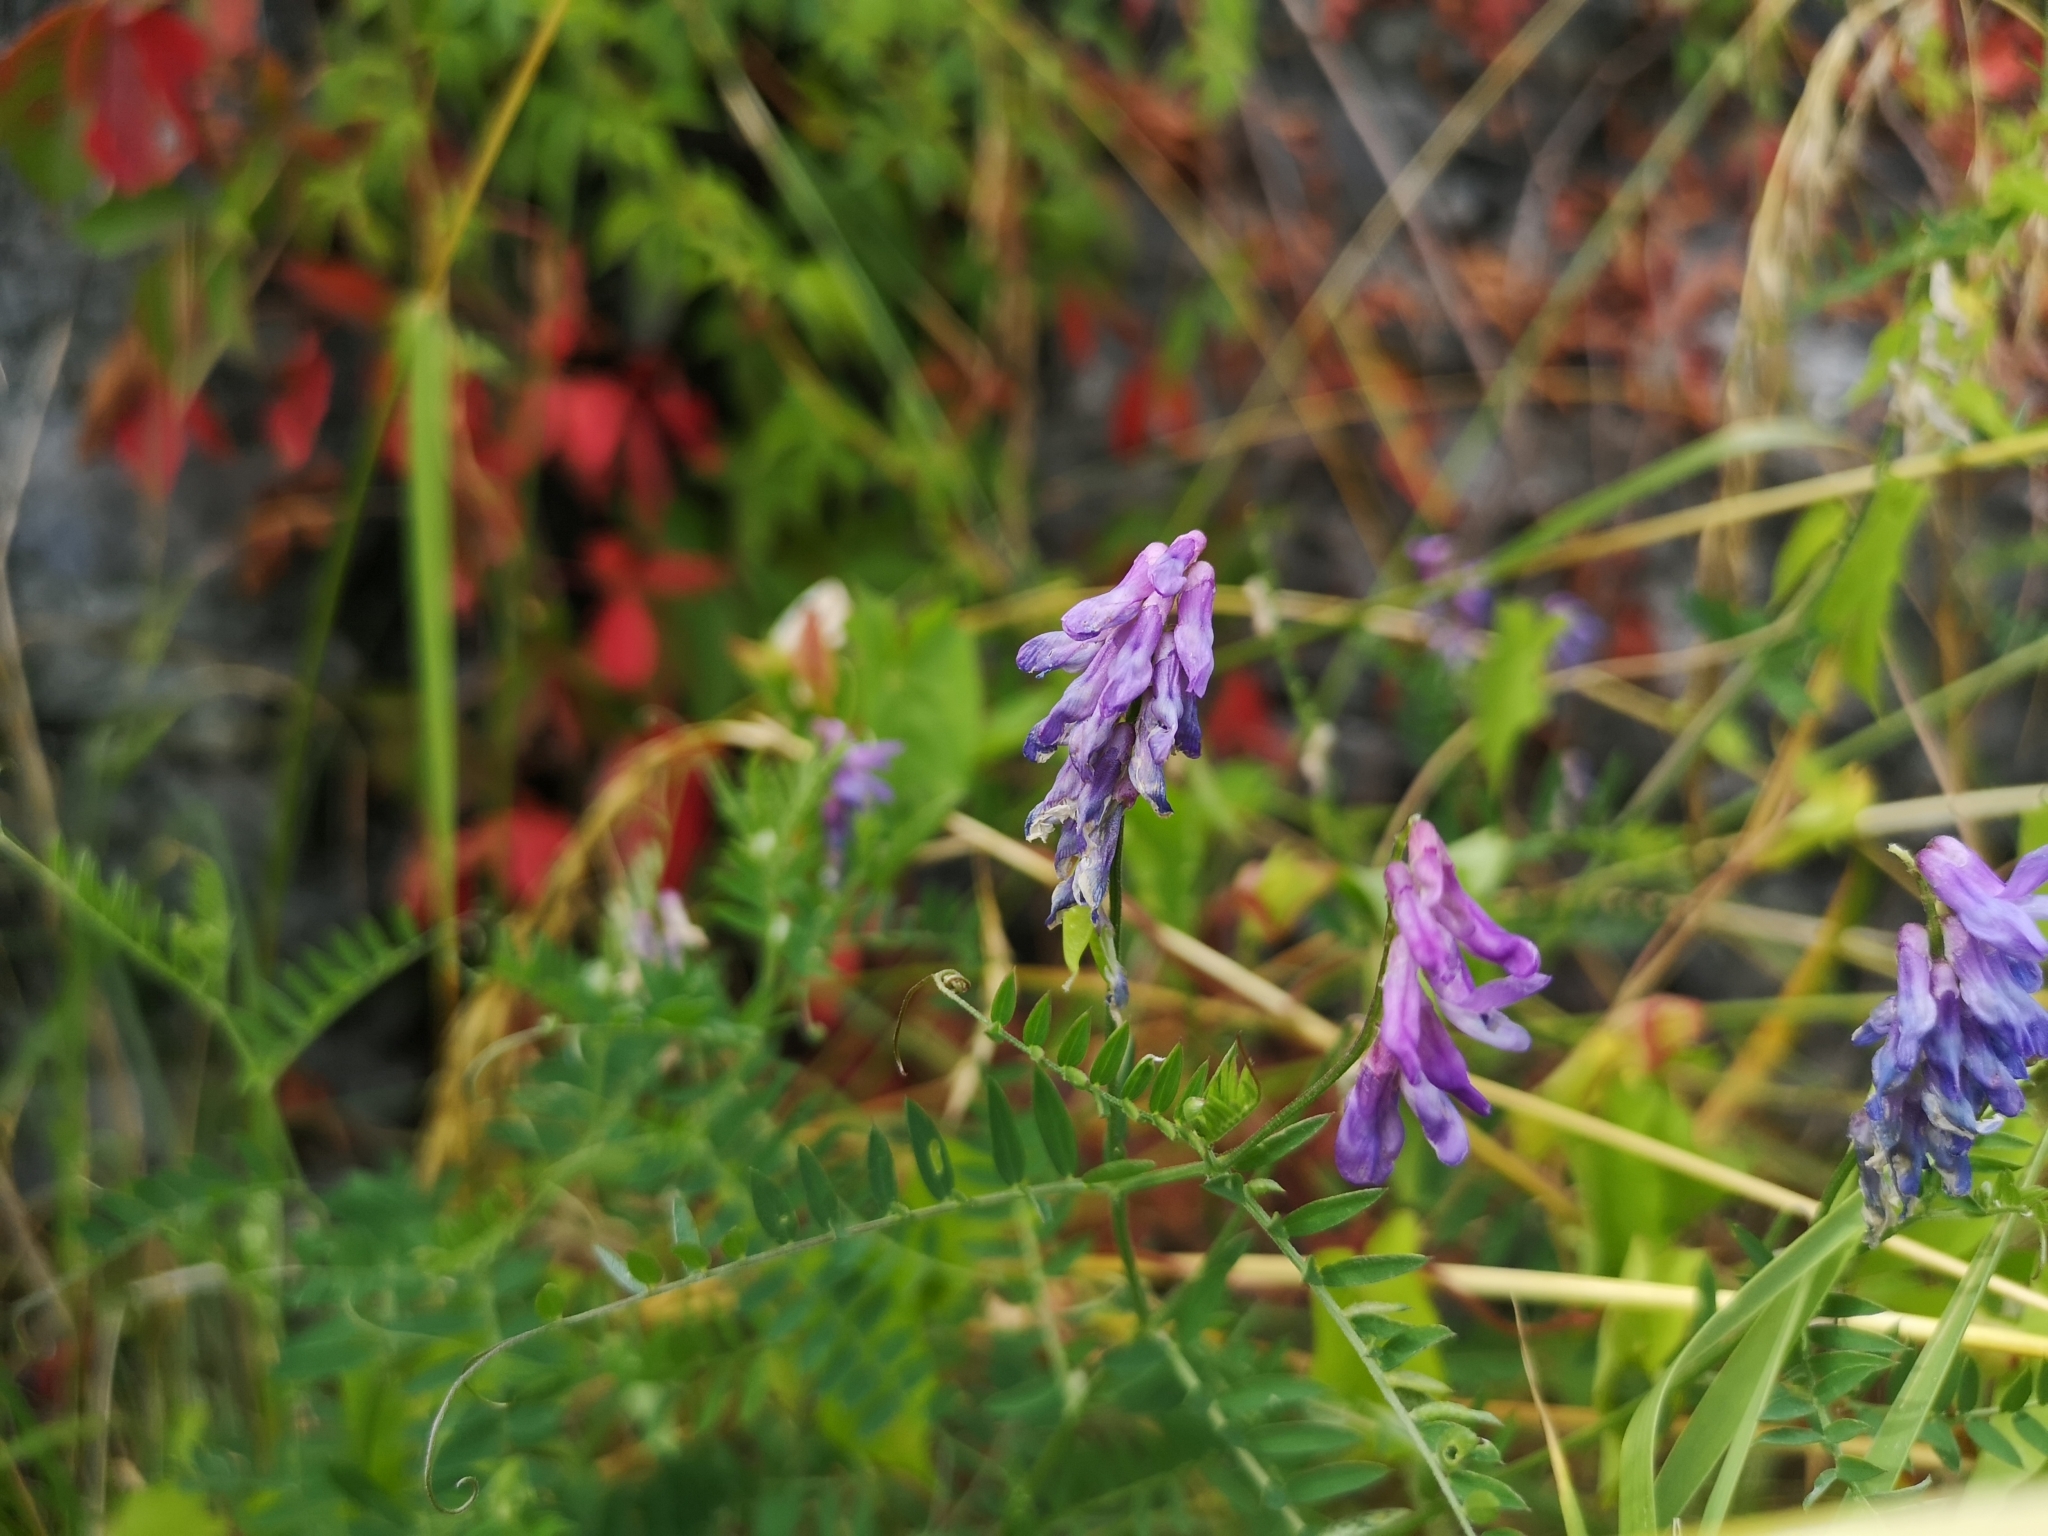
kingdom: Plantae
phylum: Tracheophyta
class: Magnoliopsida
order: Fabales
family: Fabaceae
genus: Vicia
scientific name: Vicia cracca
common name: Bird vetch
